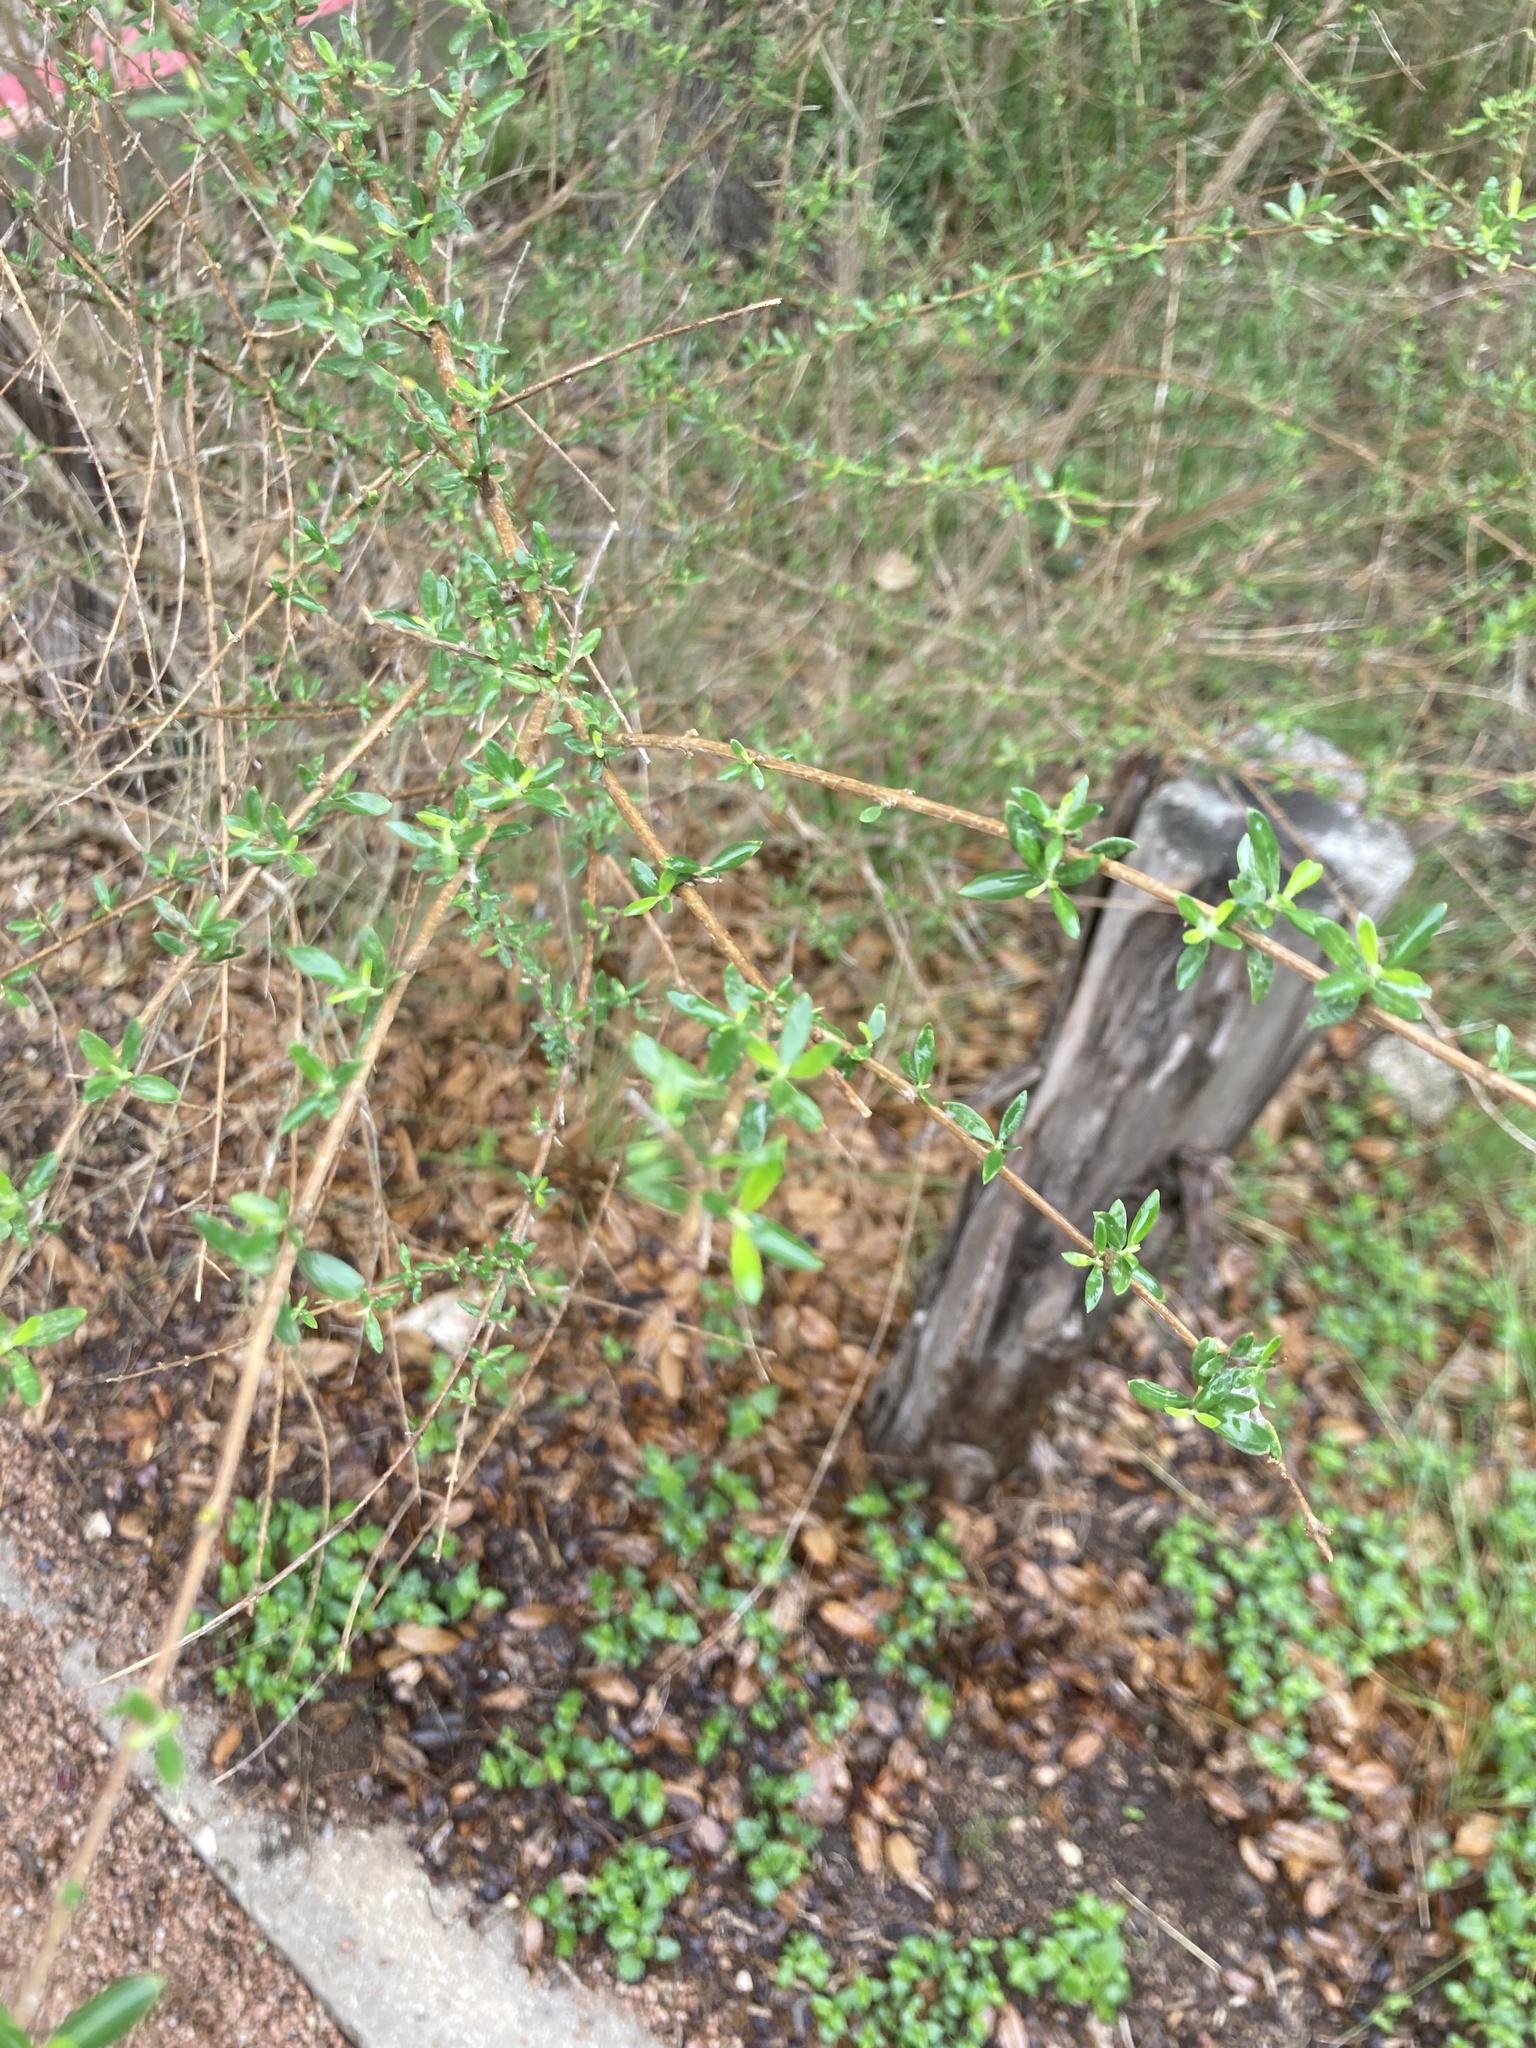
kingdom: Plantae
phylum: Tracheophyta
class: Magnoliopsida
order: Lamiales
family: Verbenaceae
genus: Aloysia
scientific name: Aloysia gratissima
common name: Common bee-brush
